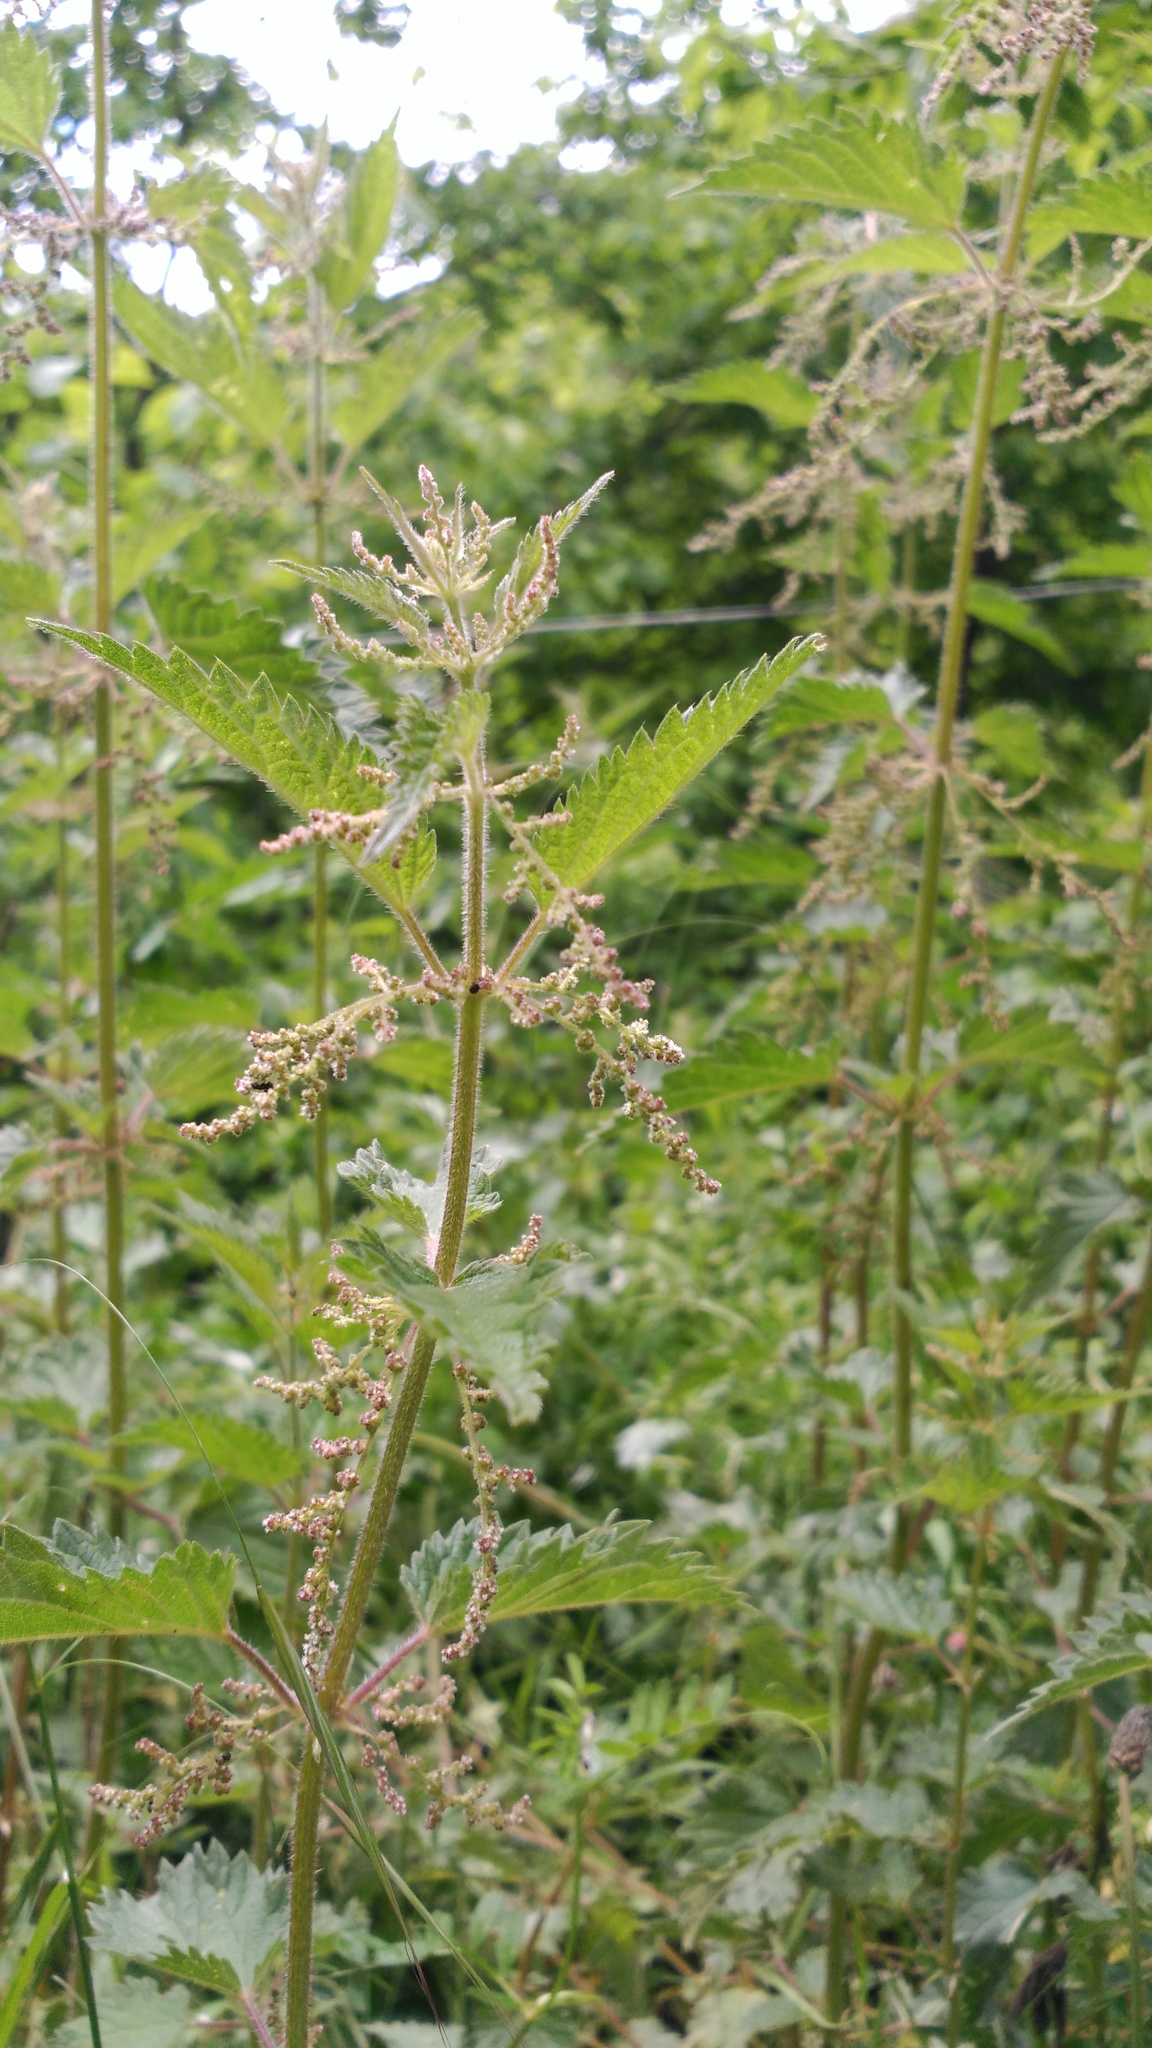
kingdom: Plantae
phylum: Tracheophyta
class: Magnoliopsida
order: Rosales
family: Urticaceae
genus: Urtica
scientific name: Urtica dioica
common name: Common nettle
